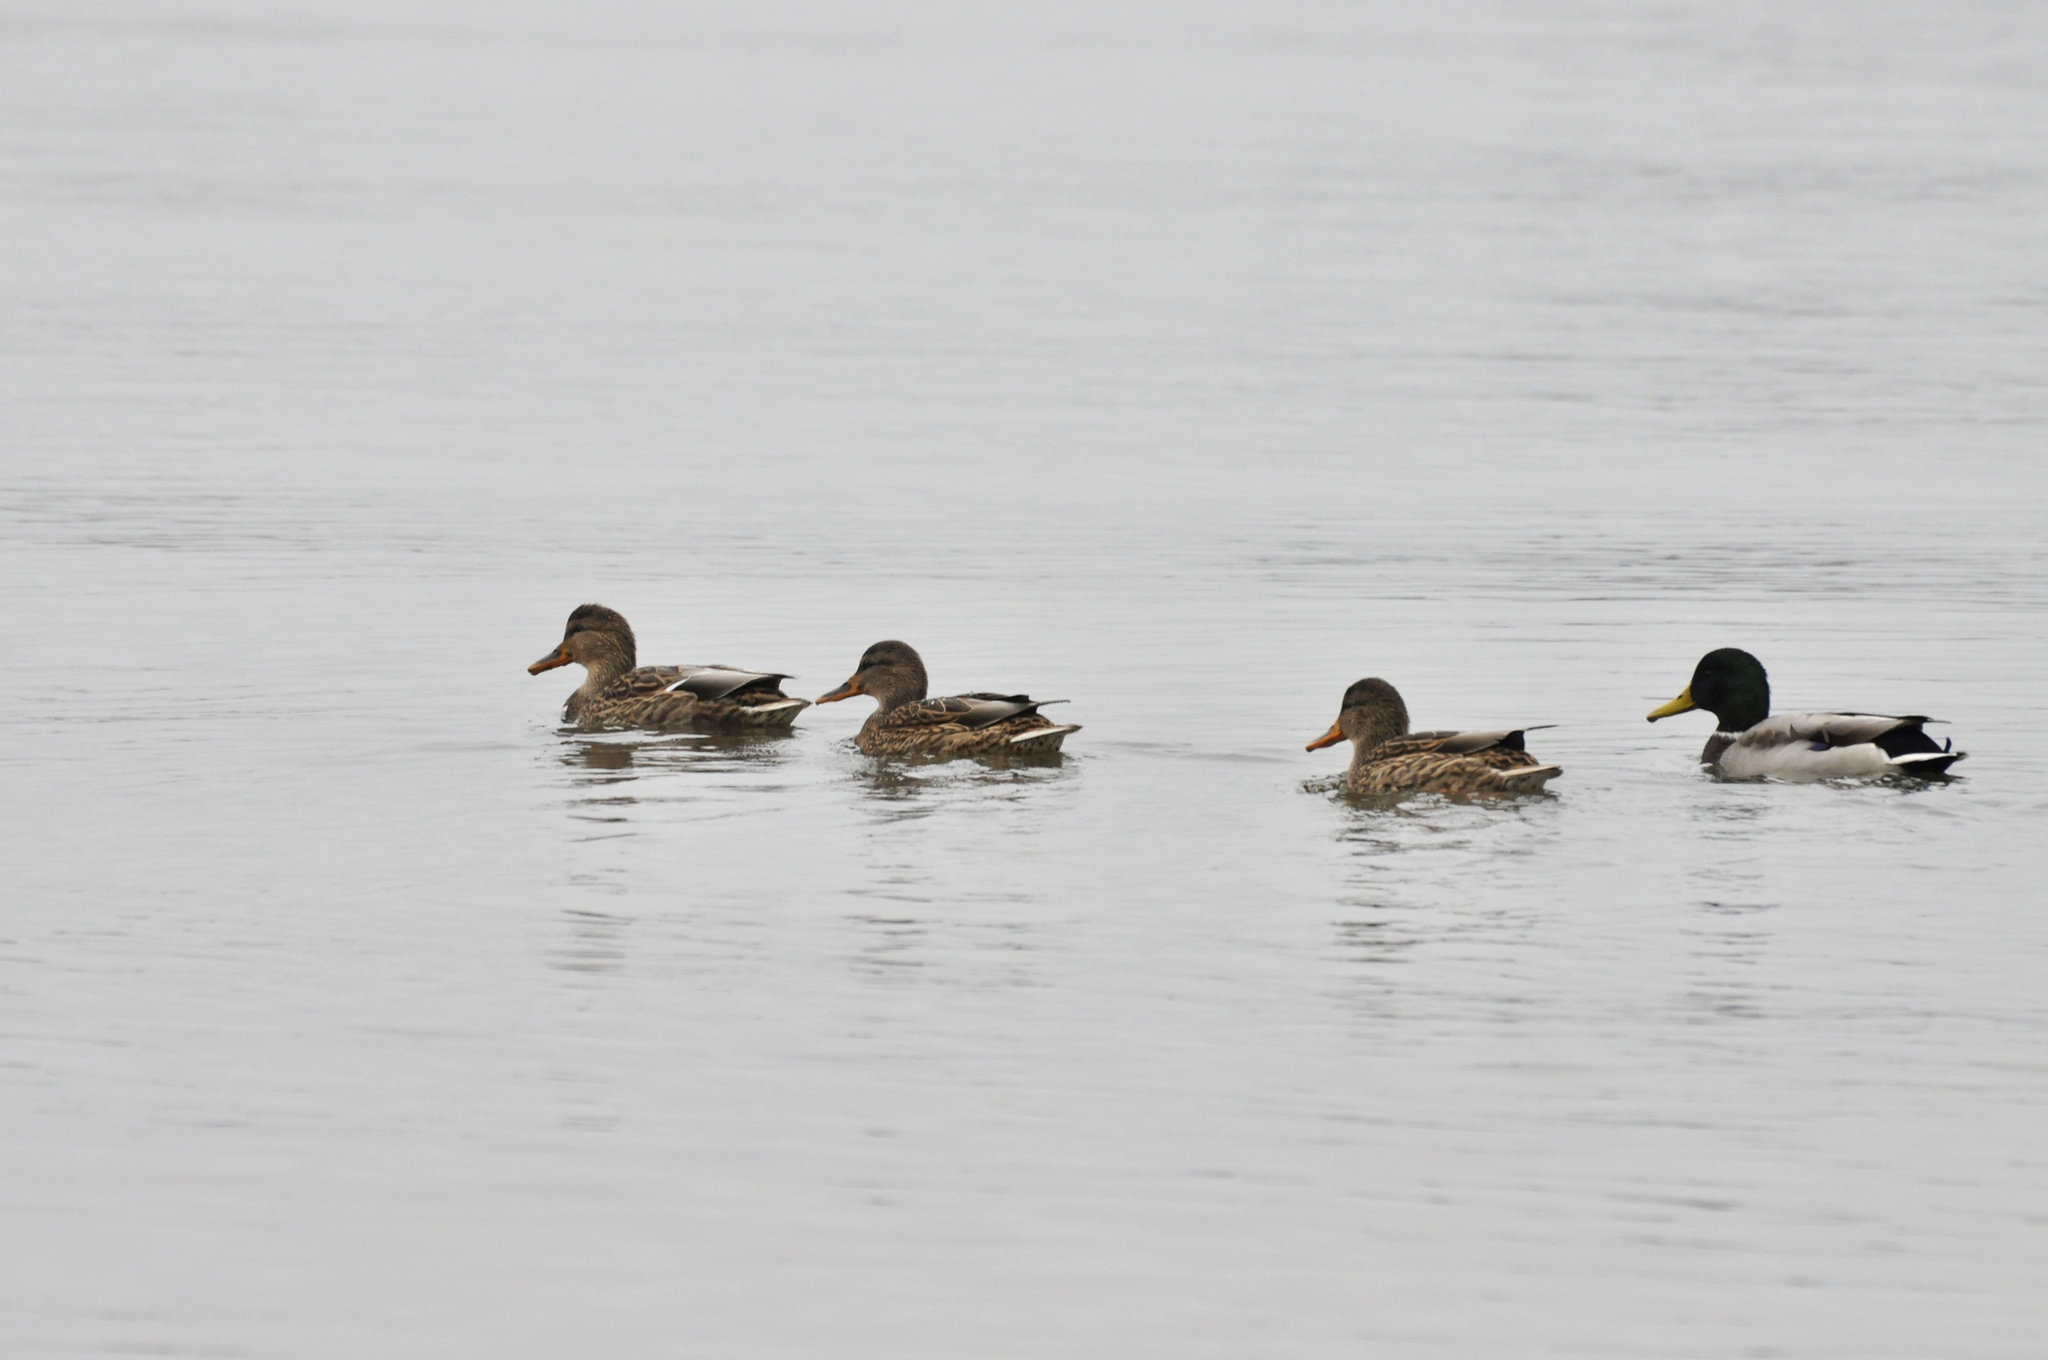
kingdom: Animalia
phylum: Chordata
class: Aves
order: Anseriformes
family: Anatidae
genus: Anas
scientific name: Anas platyrhynchos
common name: Mallard
